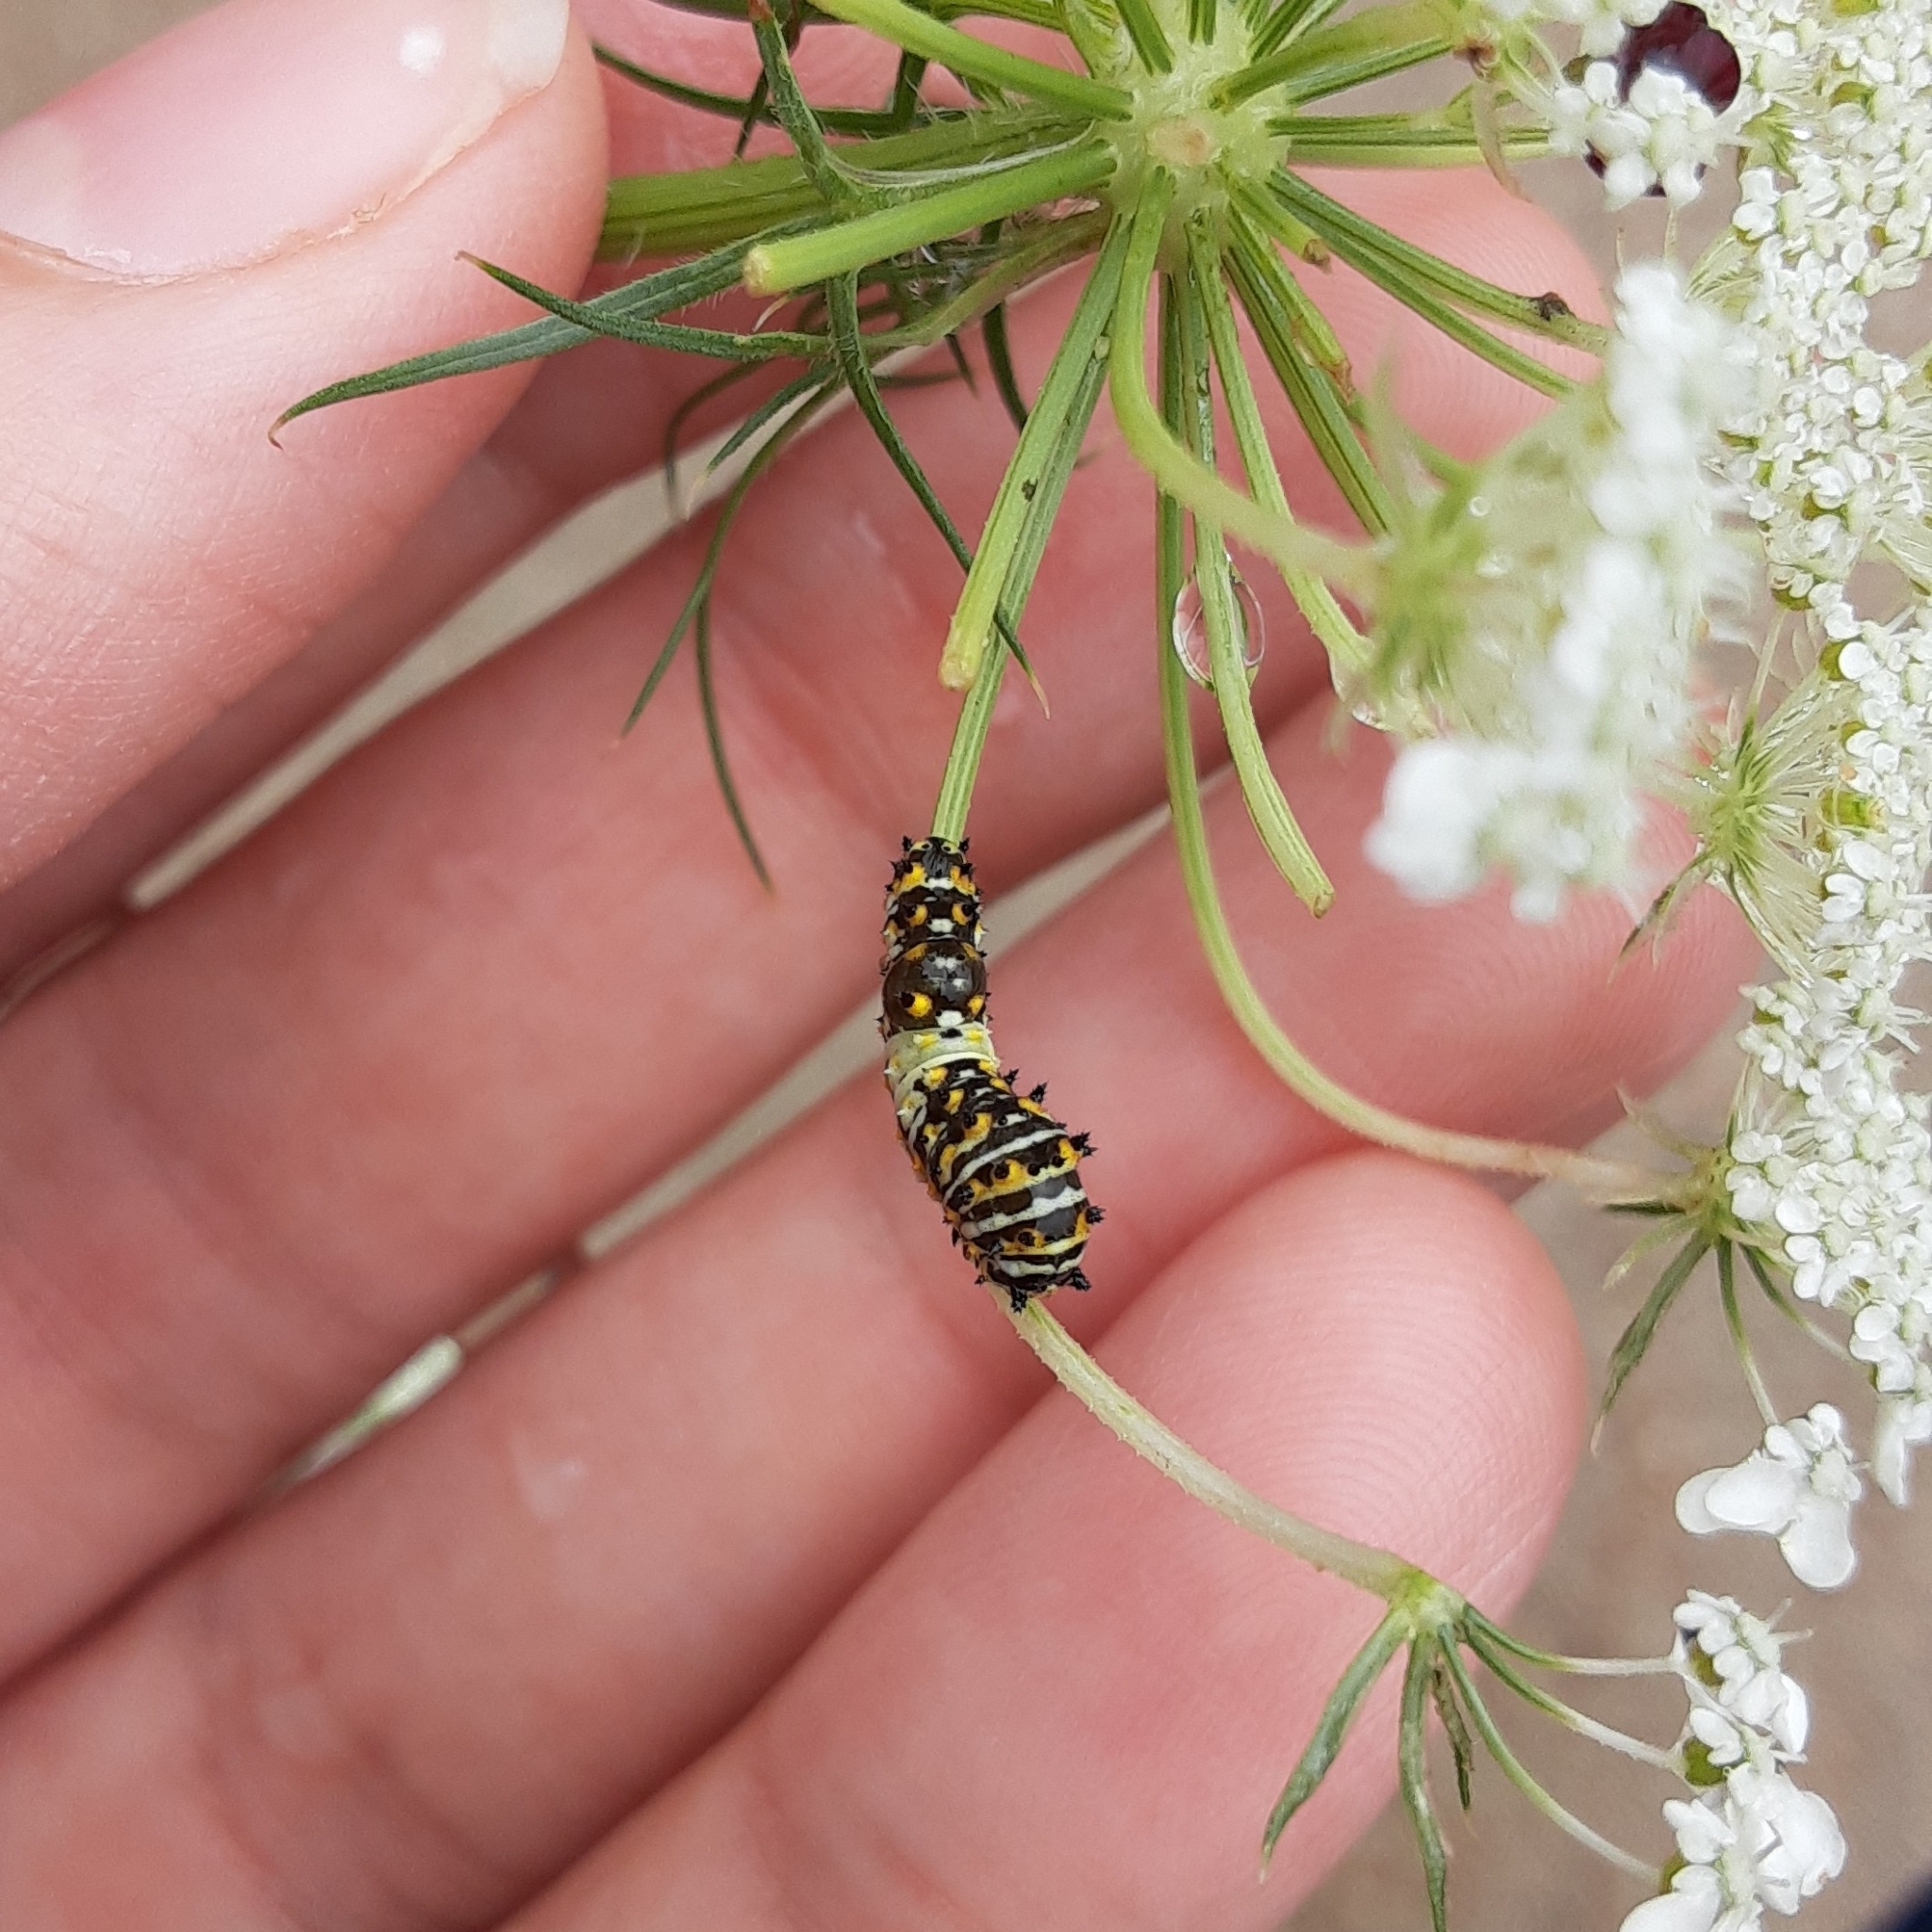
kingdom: Animalia
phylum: Arthropoda
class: Insecta
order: Lepidoptera
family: Papilionidae
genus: Papilio
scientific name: Papilio polyxenes
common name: Black swallowtail
